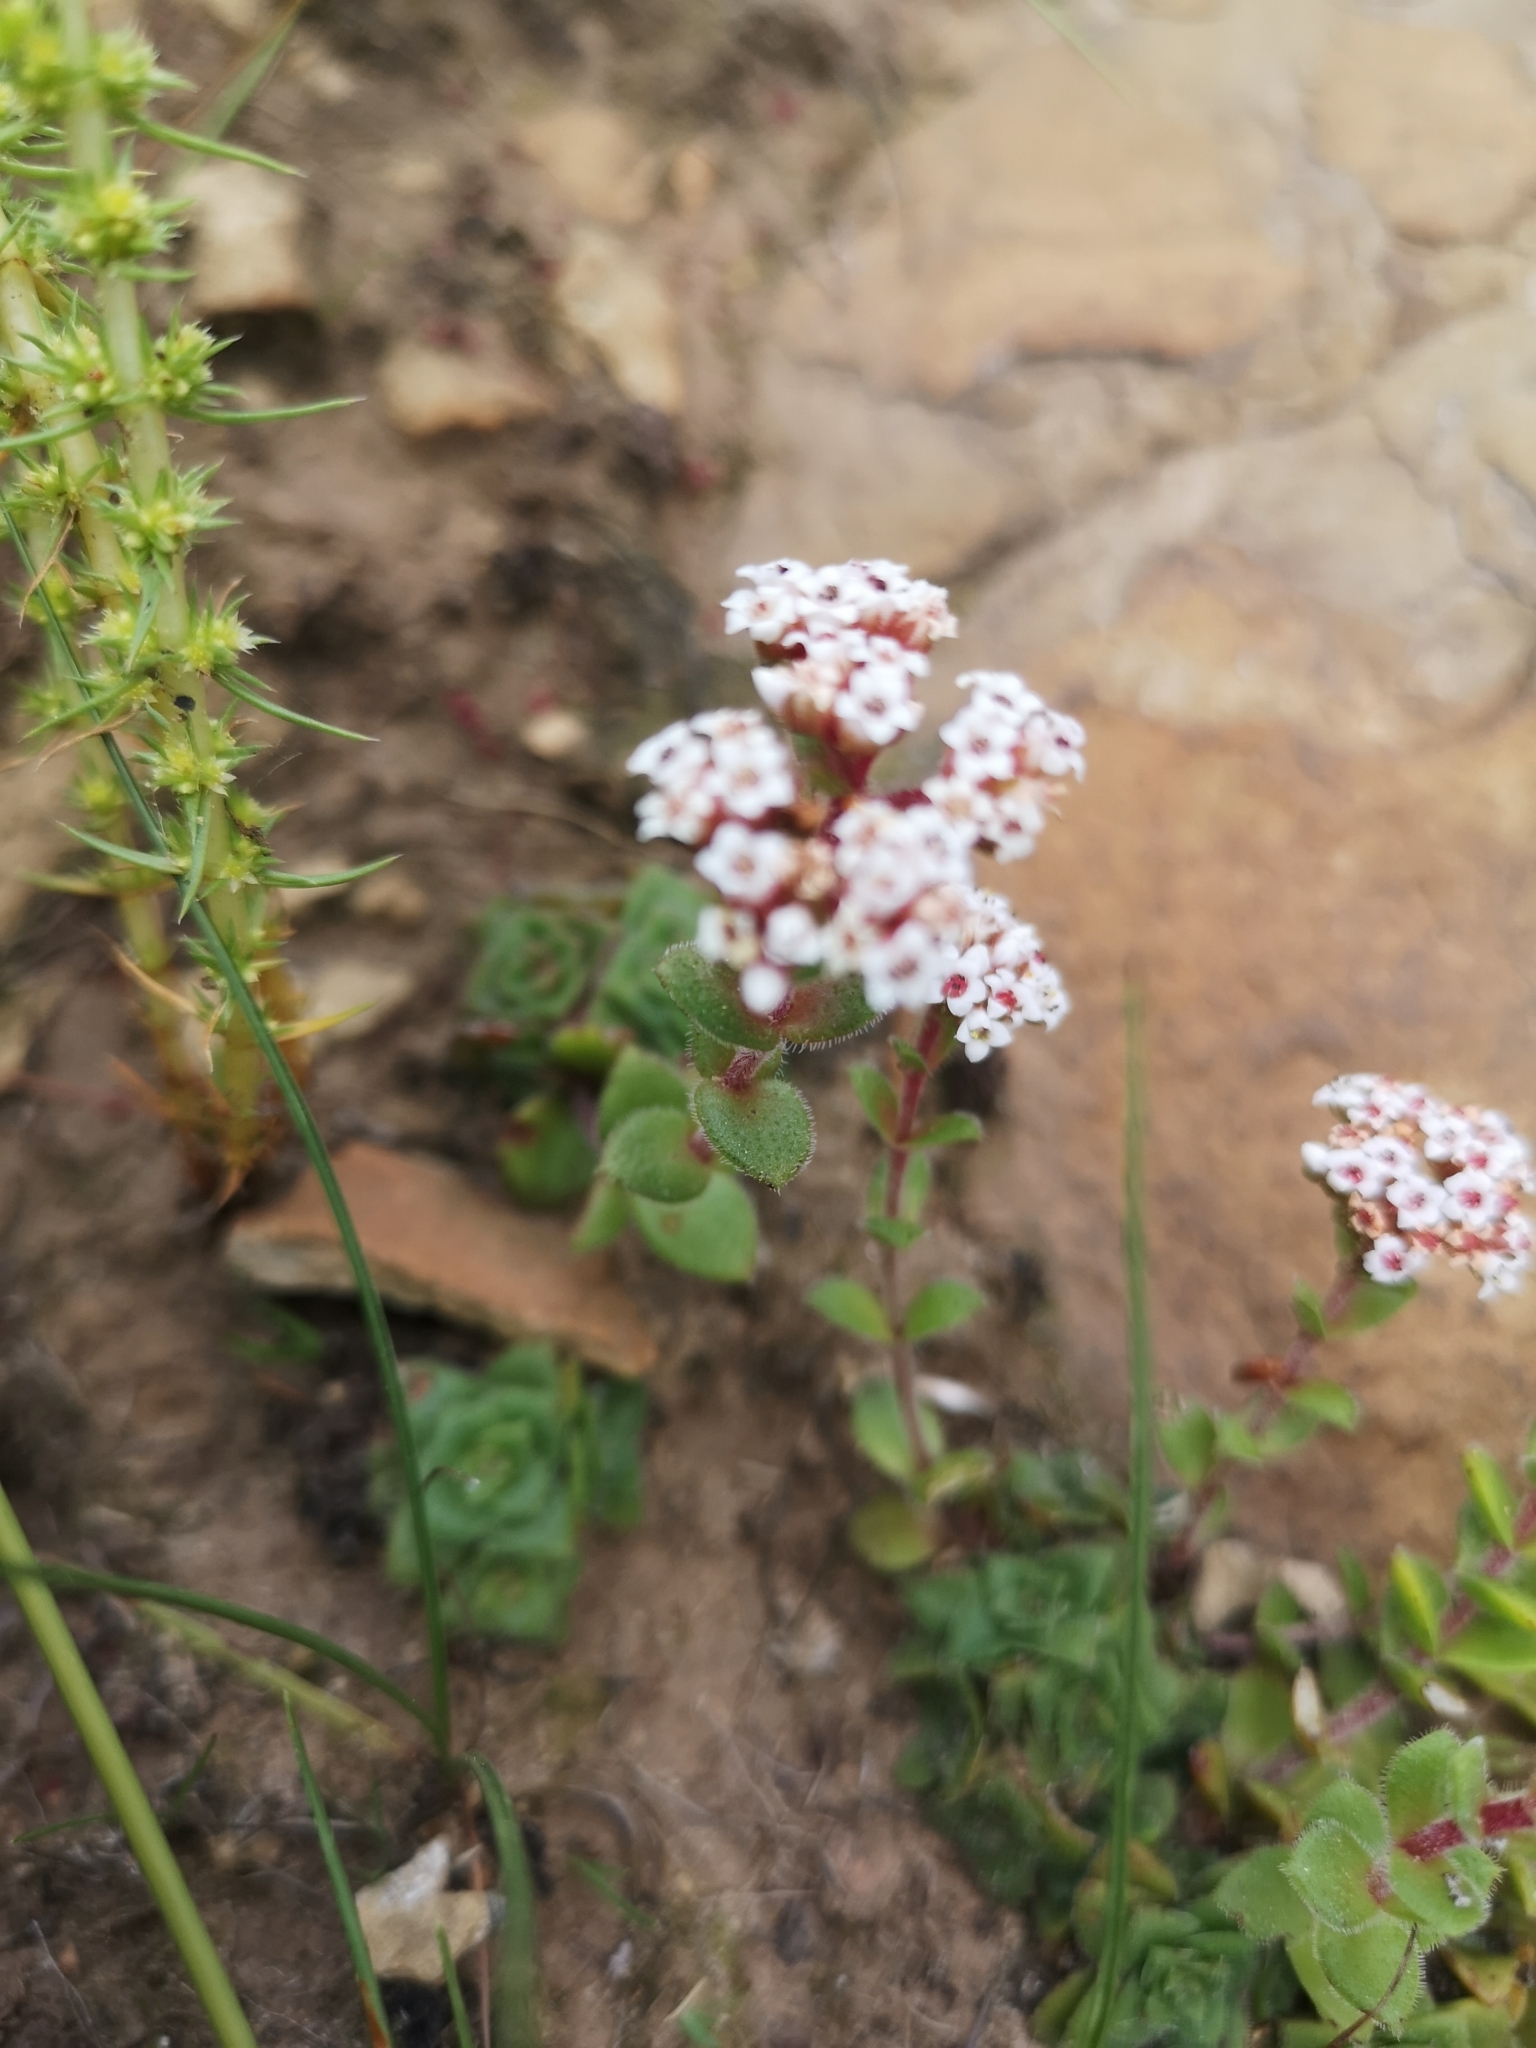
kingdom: Plantae
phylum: Tracheophyta
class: Magnoliopsida
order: Saxifragales
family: Crassulaceae
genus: Crassula
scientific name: Crassula setulosa
